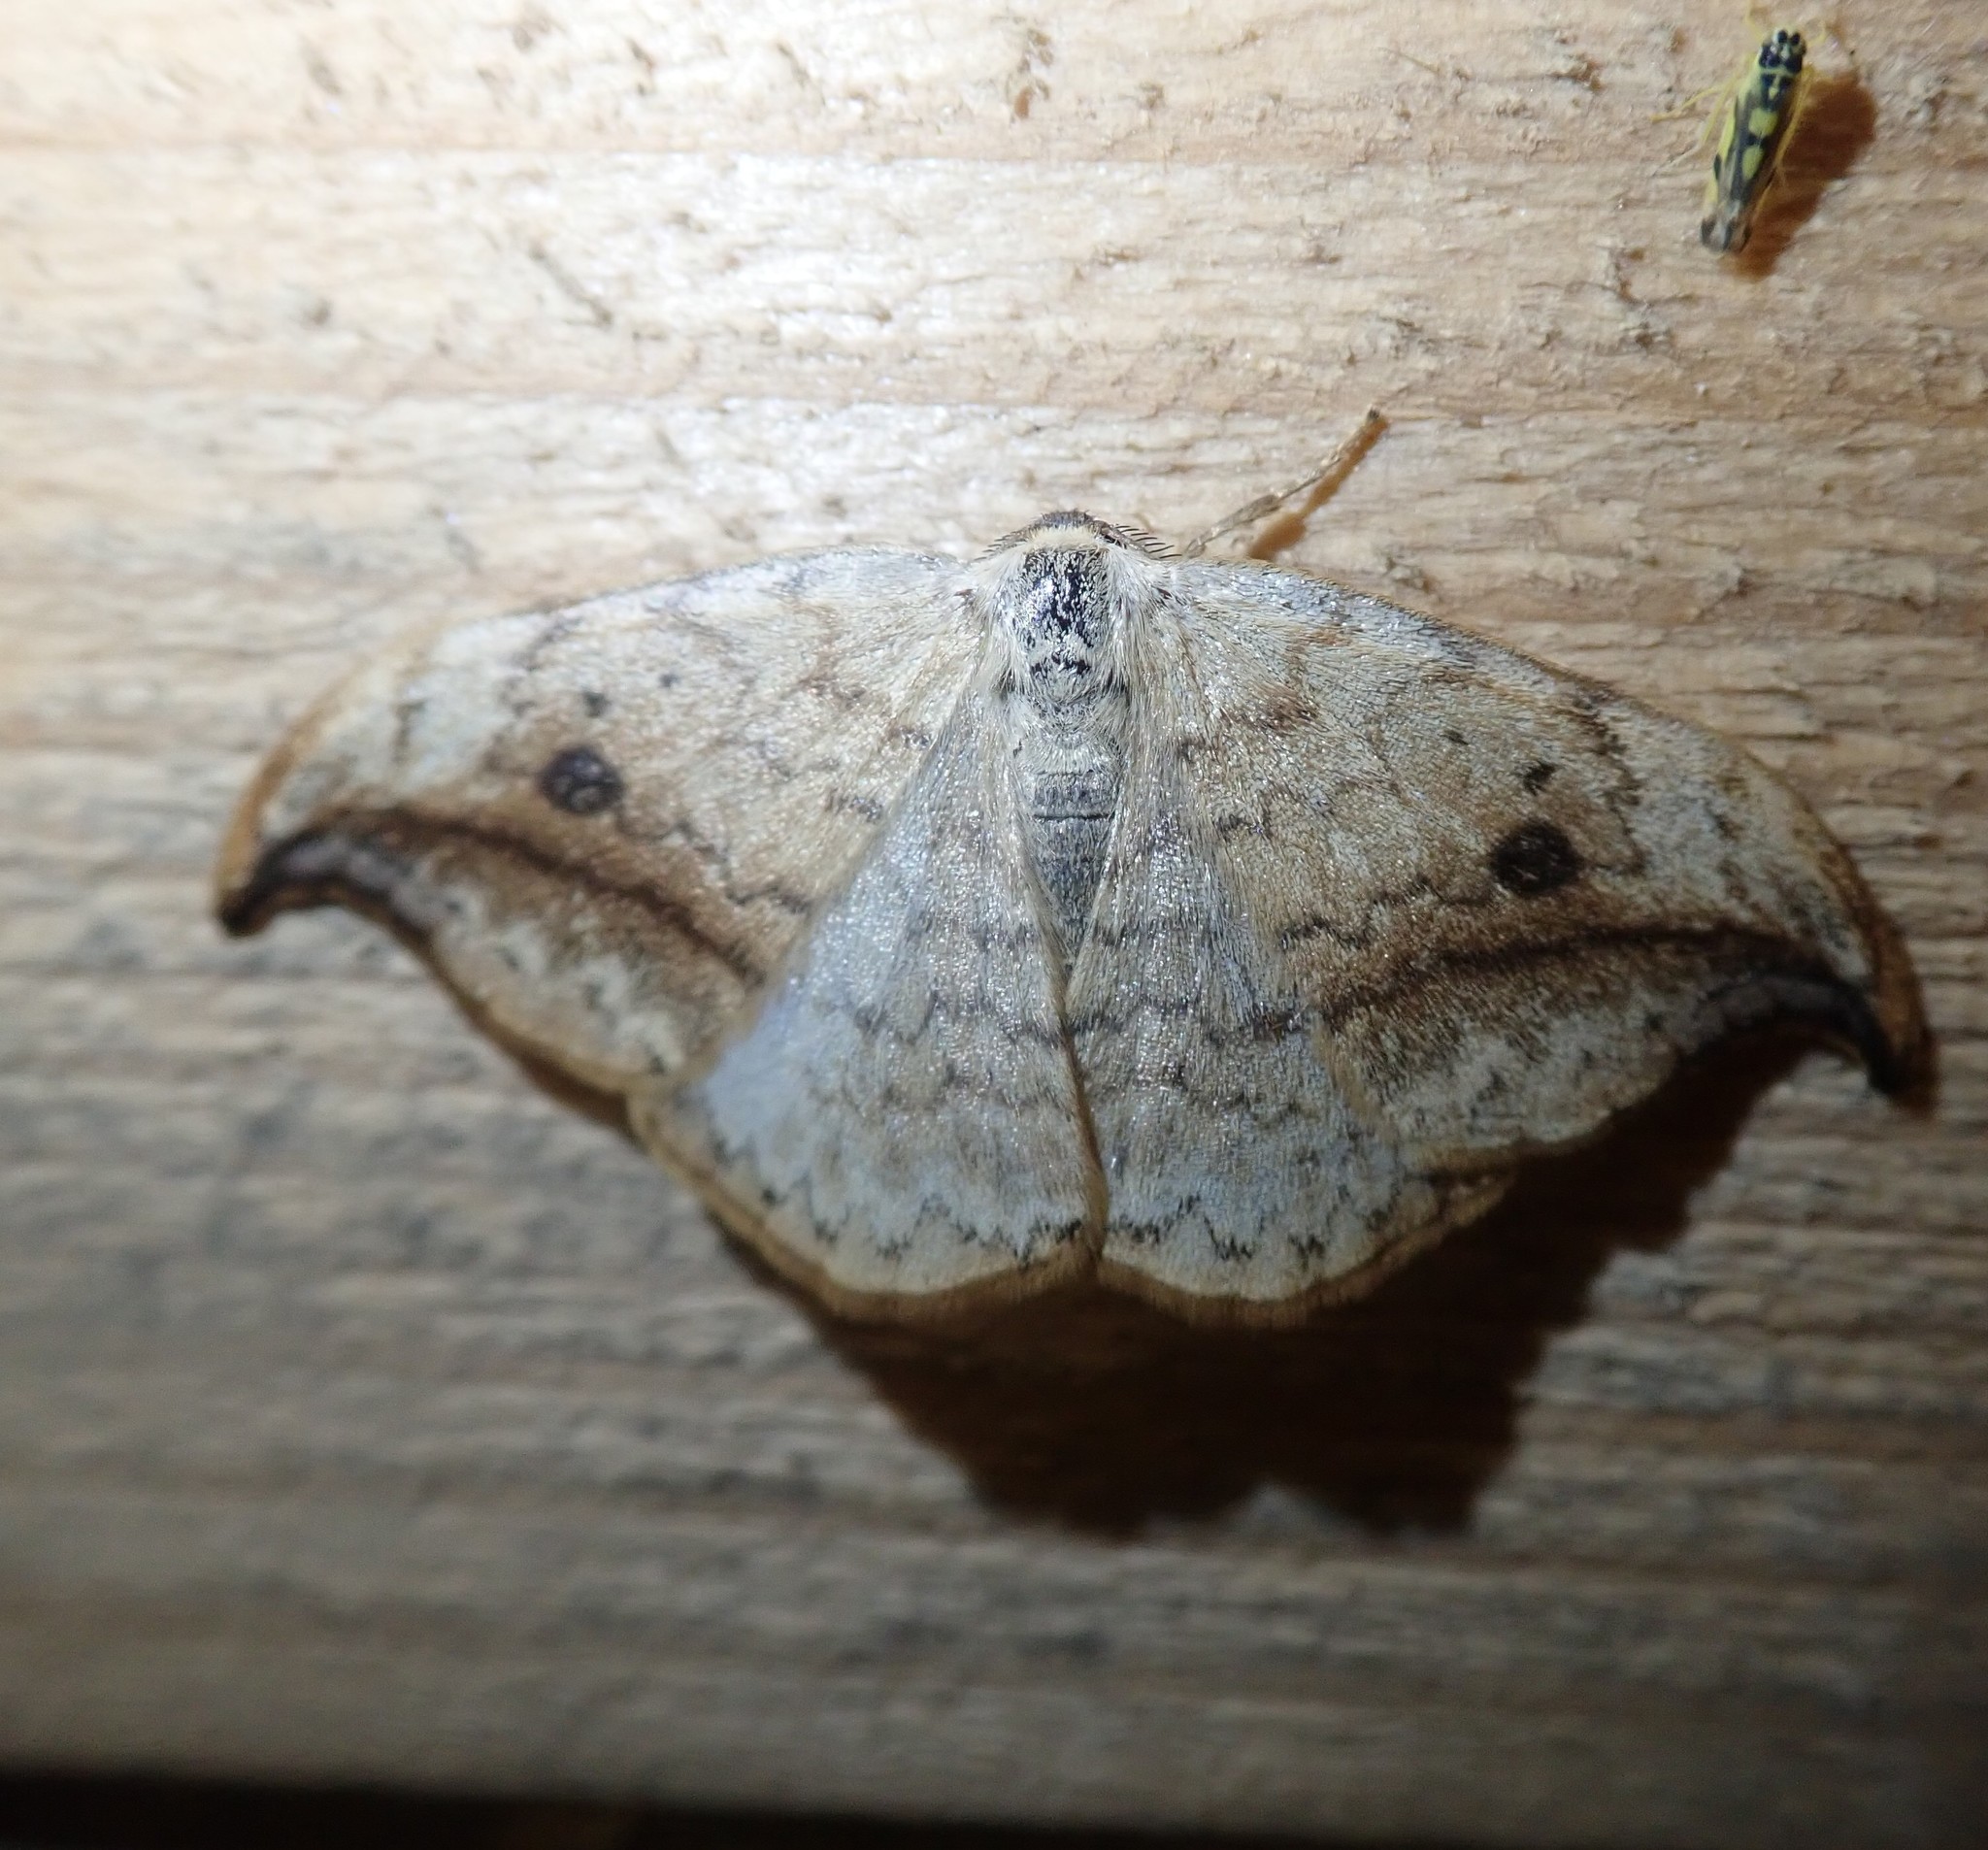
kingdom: Animalia
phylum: Arthropoda
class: Insecta
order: Lepidoptera
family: Drepanidae
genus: Drepana
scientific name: Drepana falcataria
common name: Pebble hook-tip
